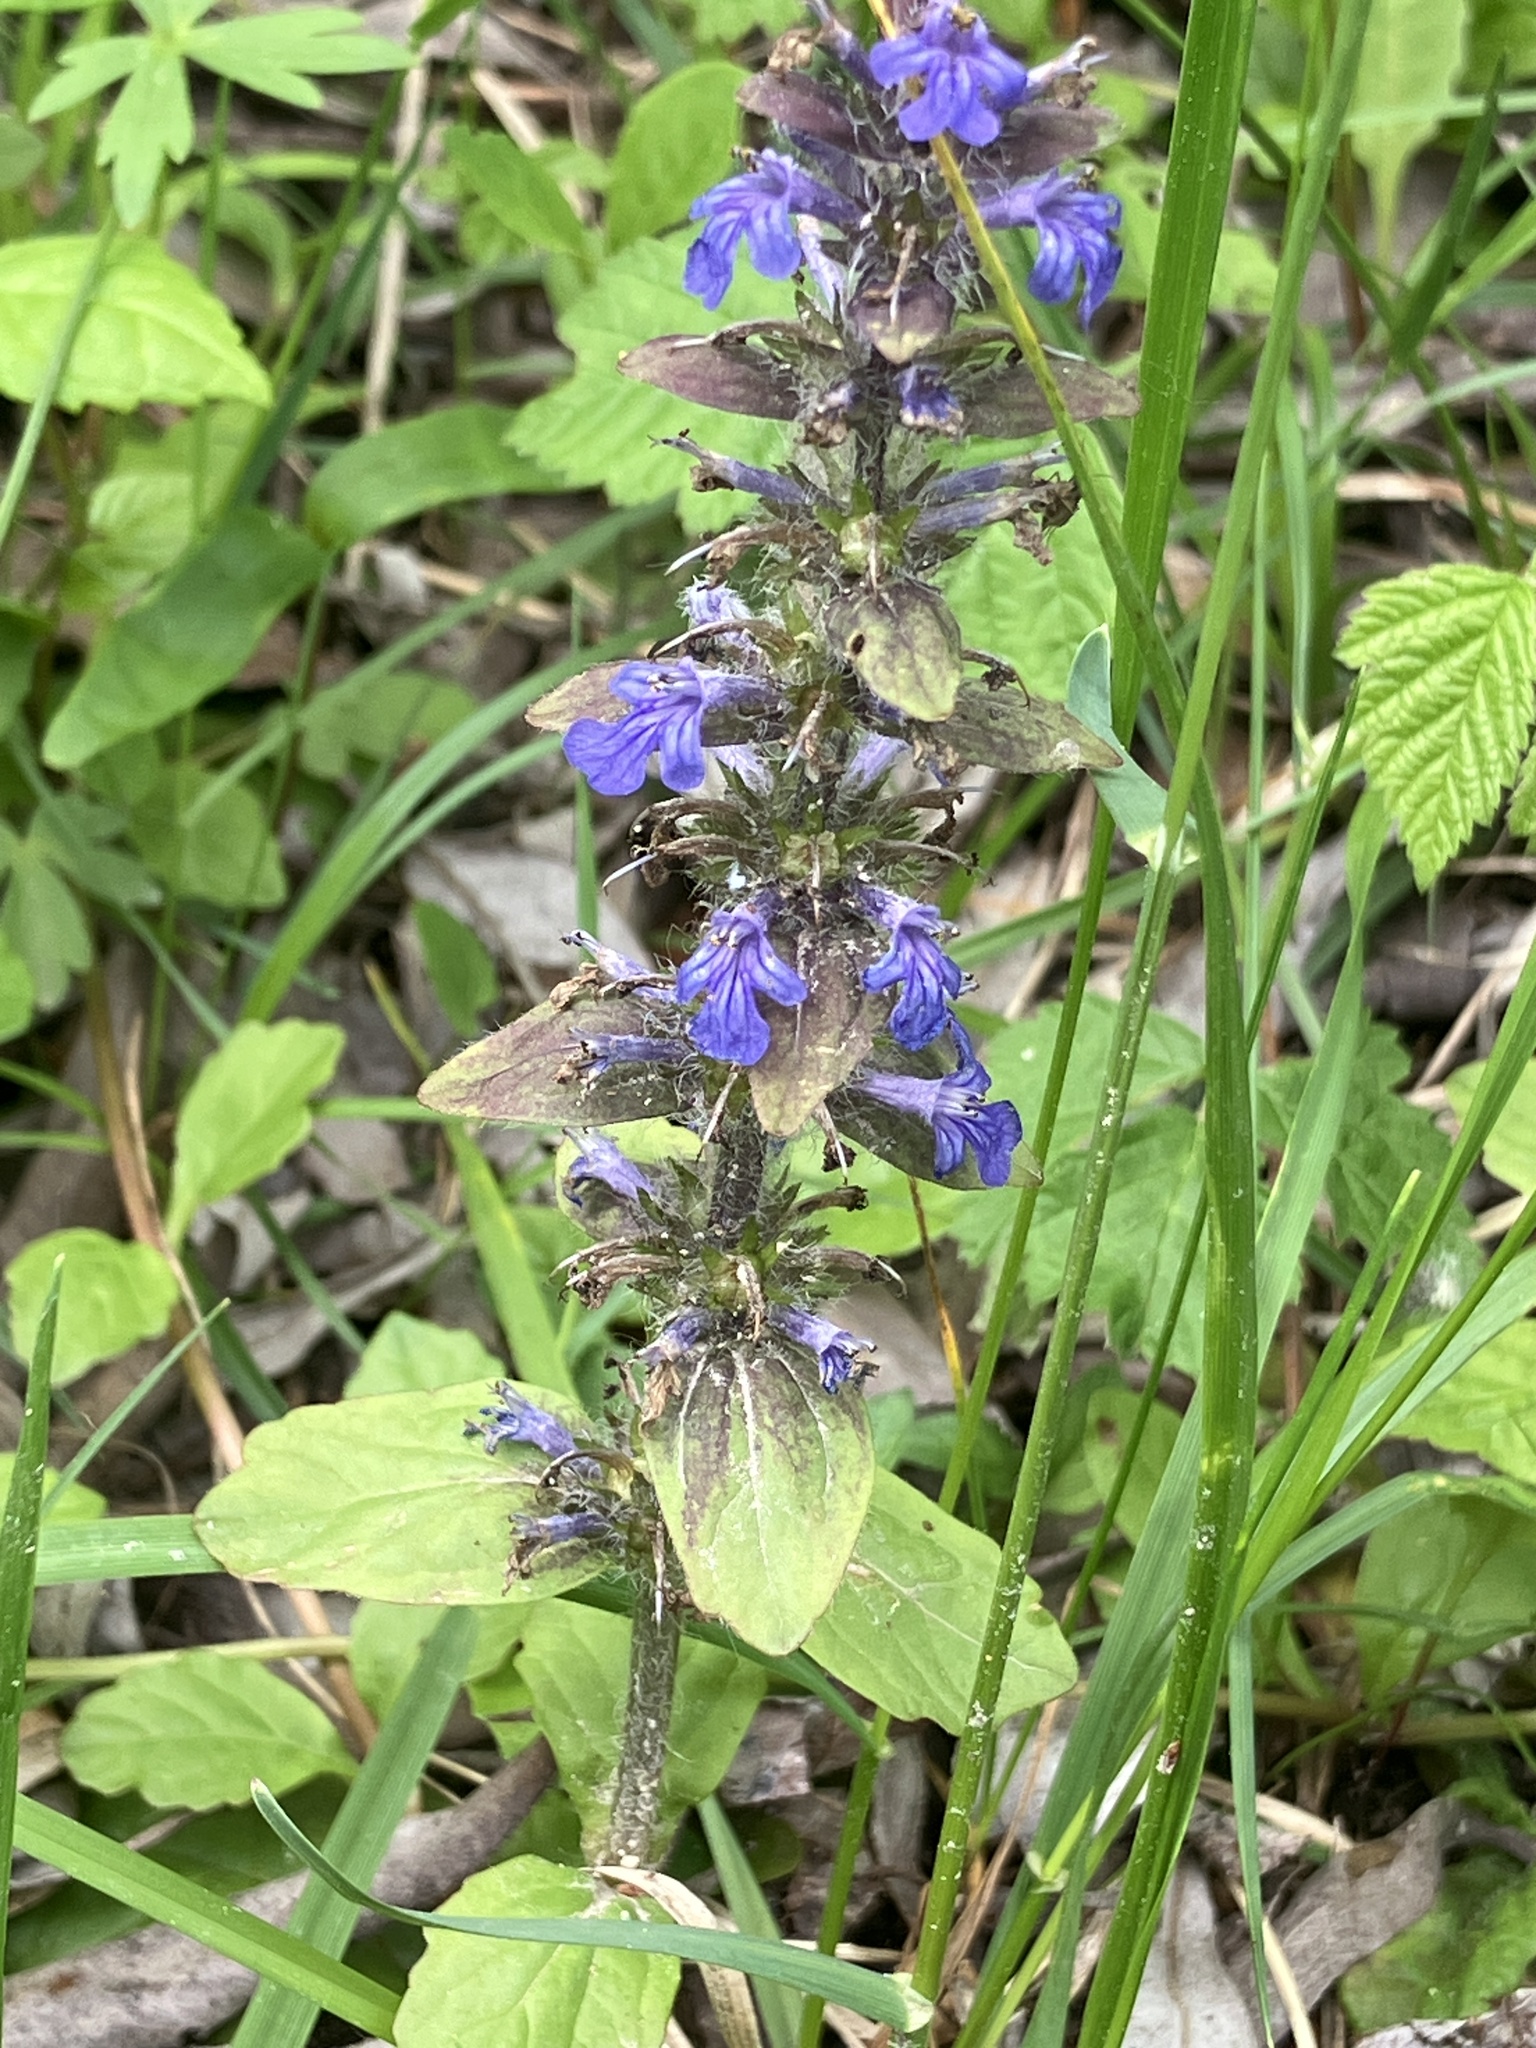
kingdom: Plantae
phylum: Tracheophyta
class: Magnoliopsida
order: Lamiales
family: Lamiaceae
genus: Ajuga
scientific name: Ajuga reptans
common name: Bugle
